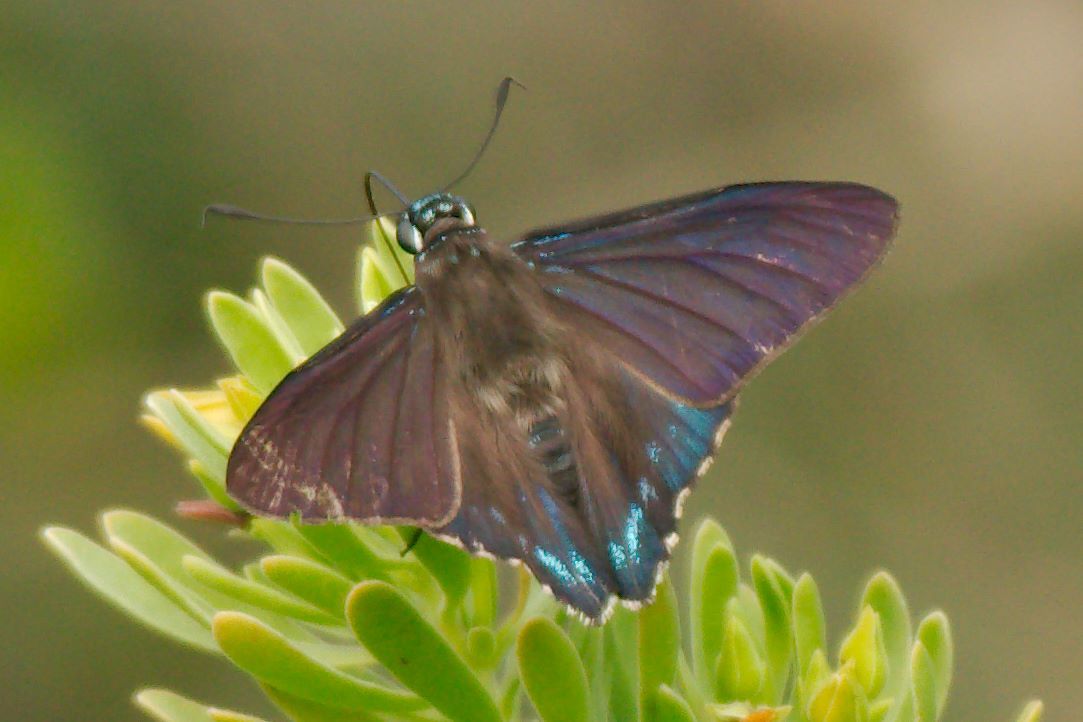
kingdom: Animalia
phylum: Arthropoda
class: Insecta
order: Lepidoptera
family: Hesperiidae
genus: Phocides
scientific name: Phocides pigmalion
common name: Mangrove skipper
